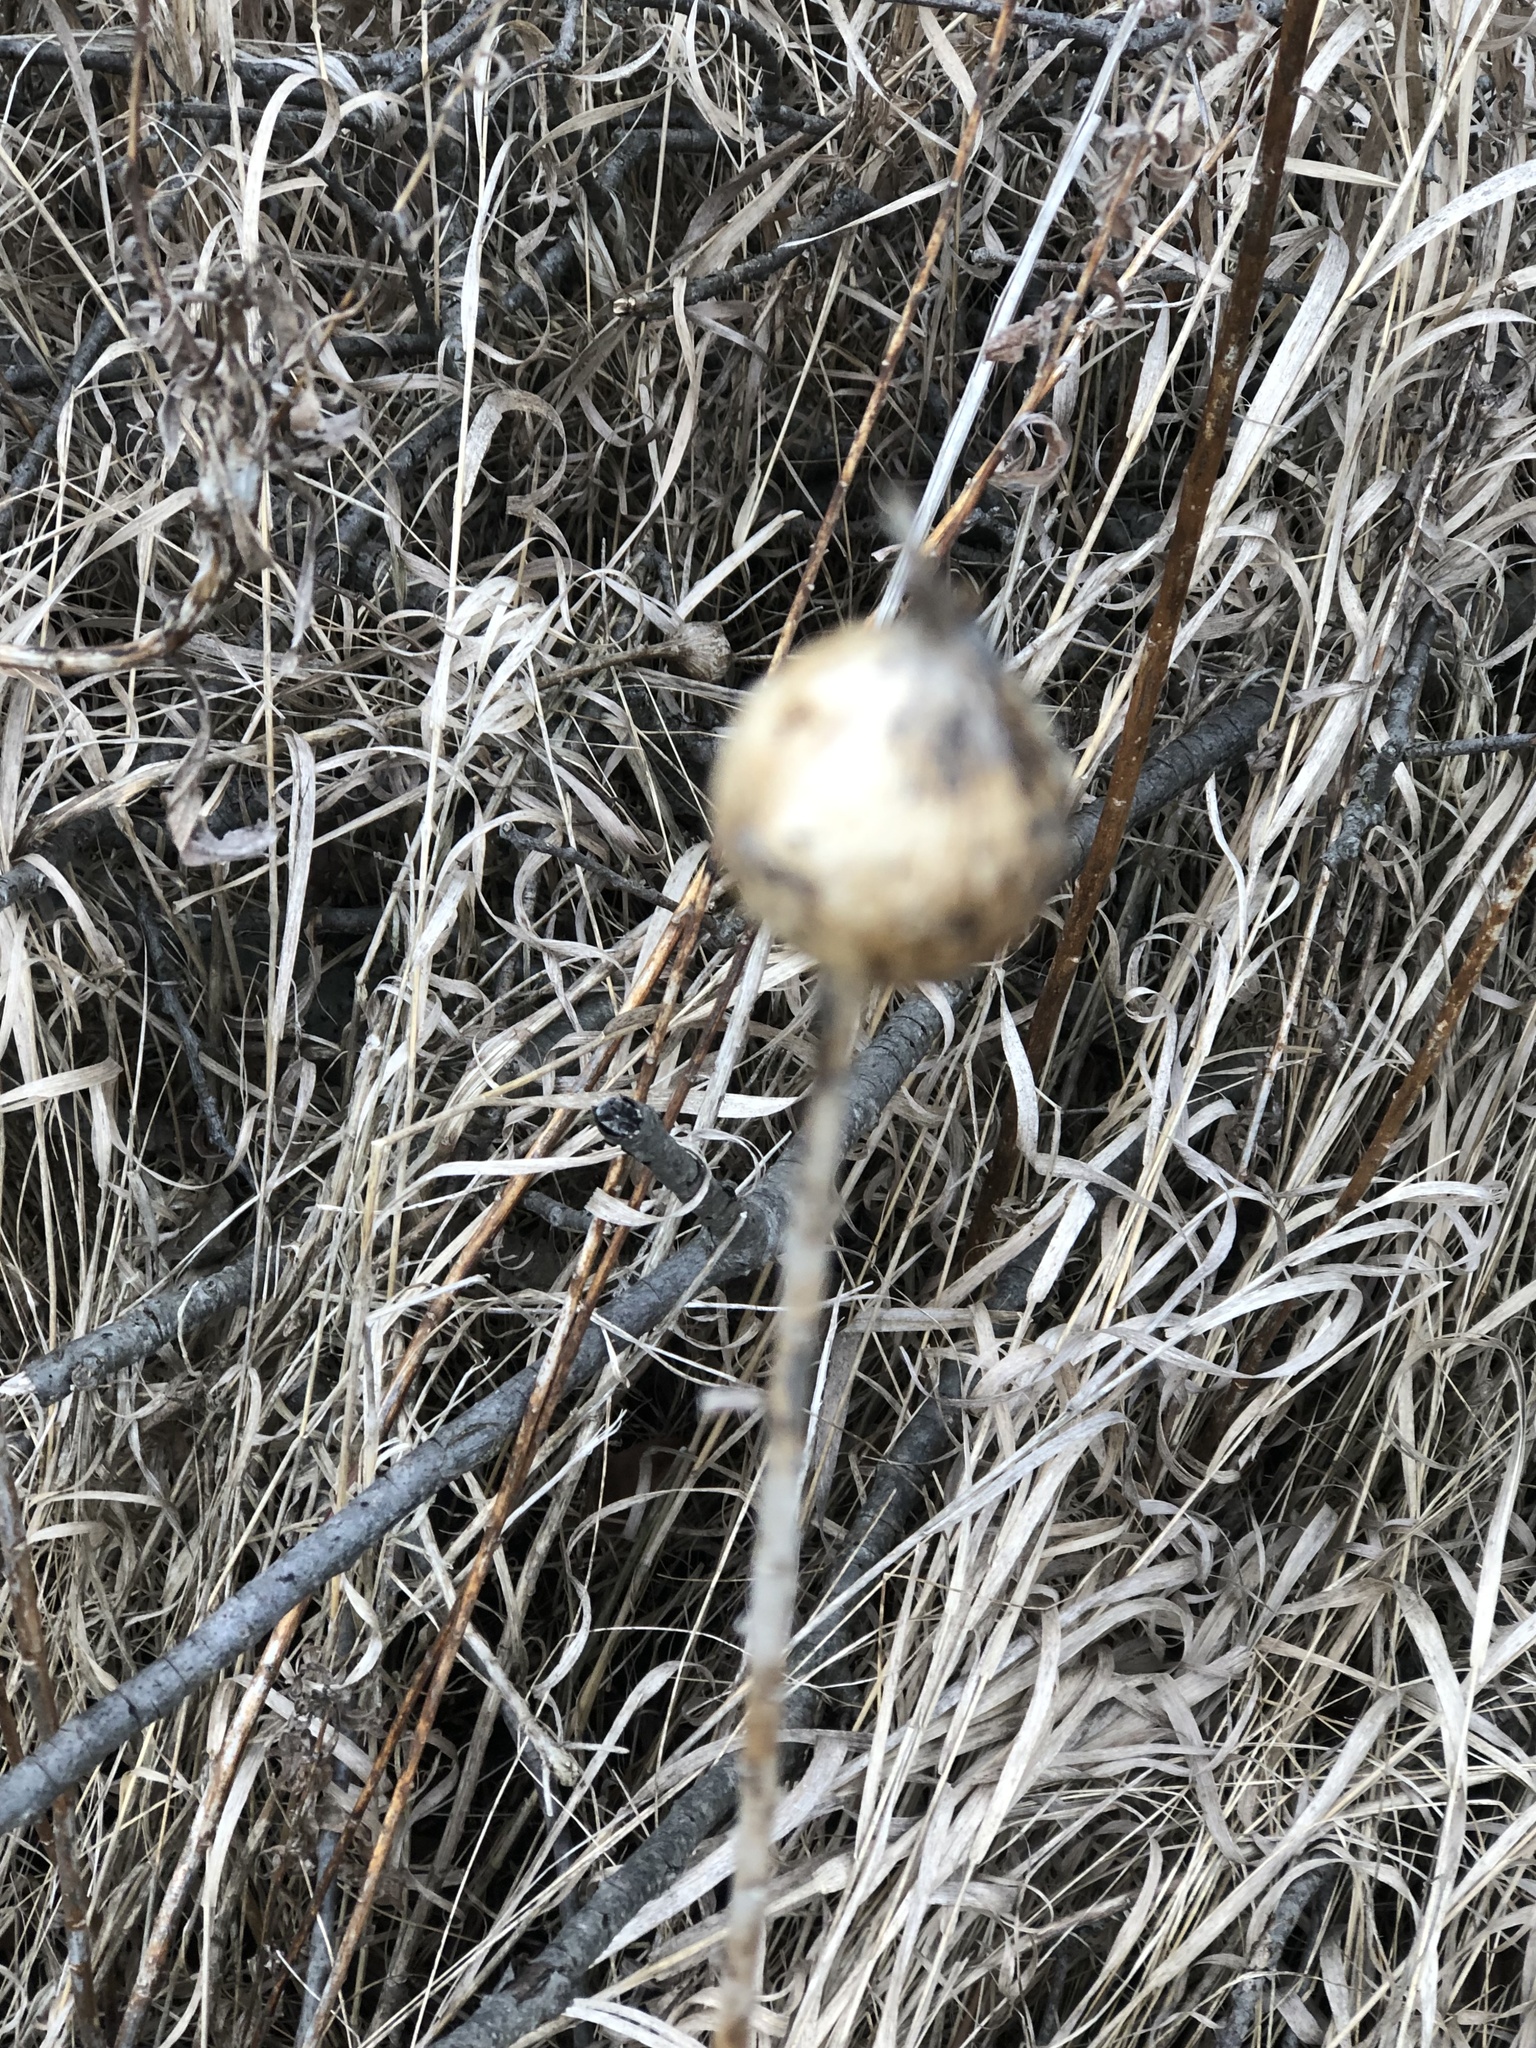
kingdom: Animalia
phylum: Arthropoda
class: Insecta
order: Diptera
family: Tephritidae
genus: Eurosta
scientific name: Eurosta solidaginis
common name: Goldenrod gall fly
